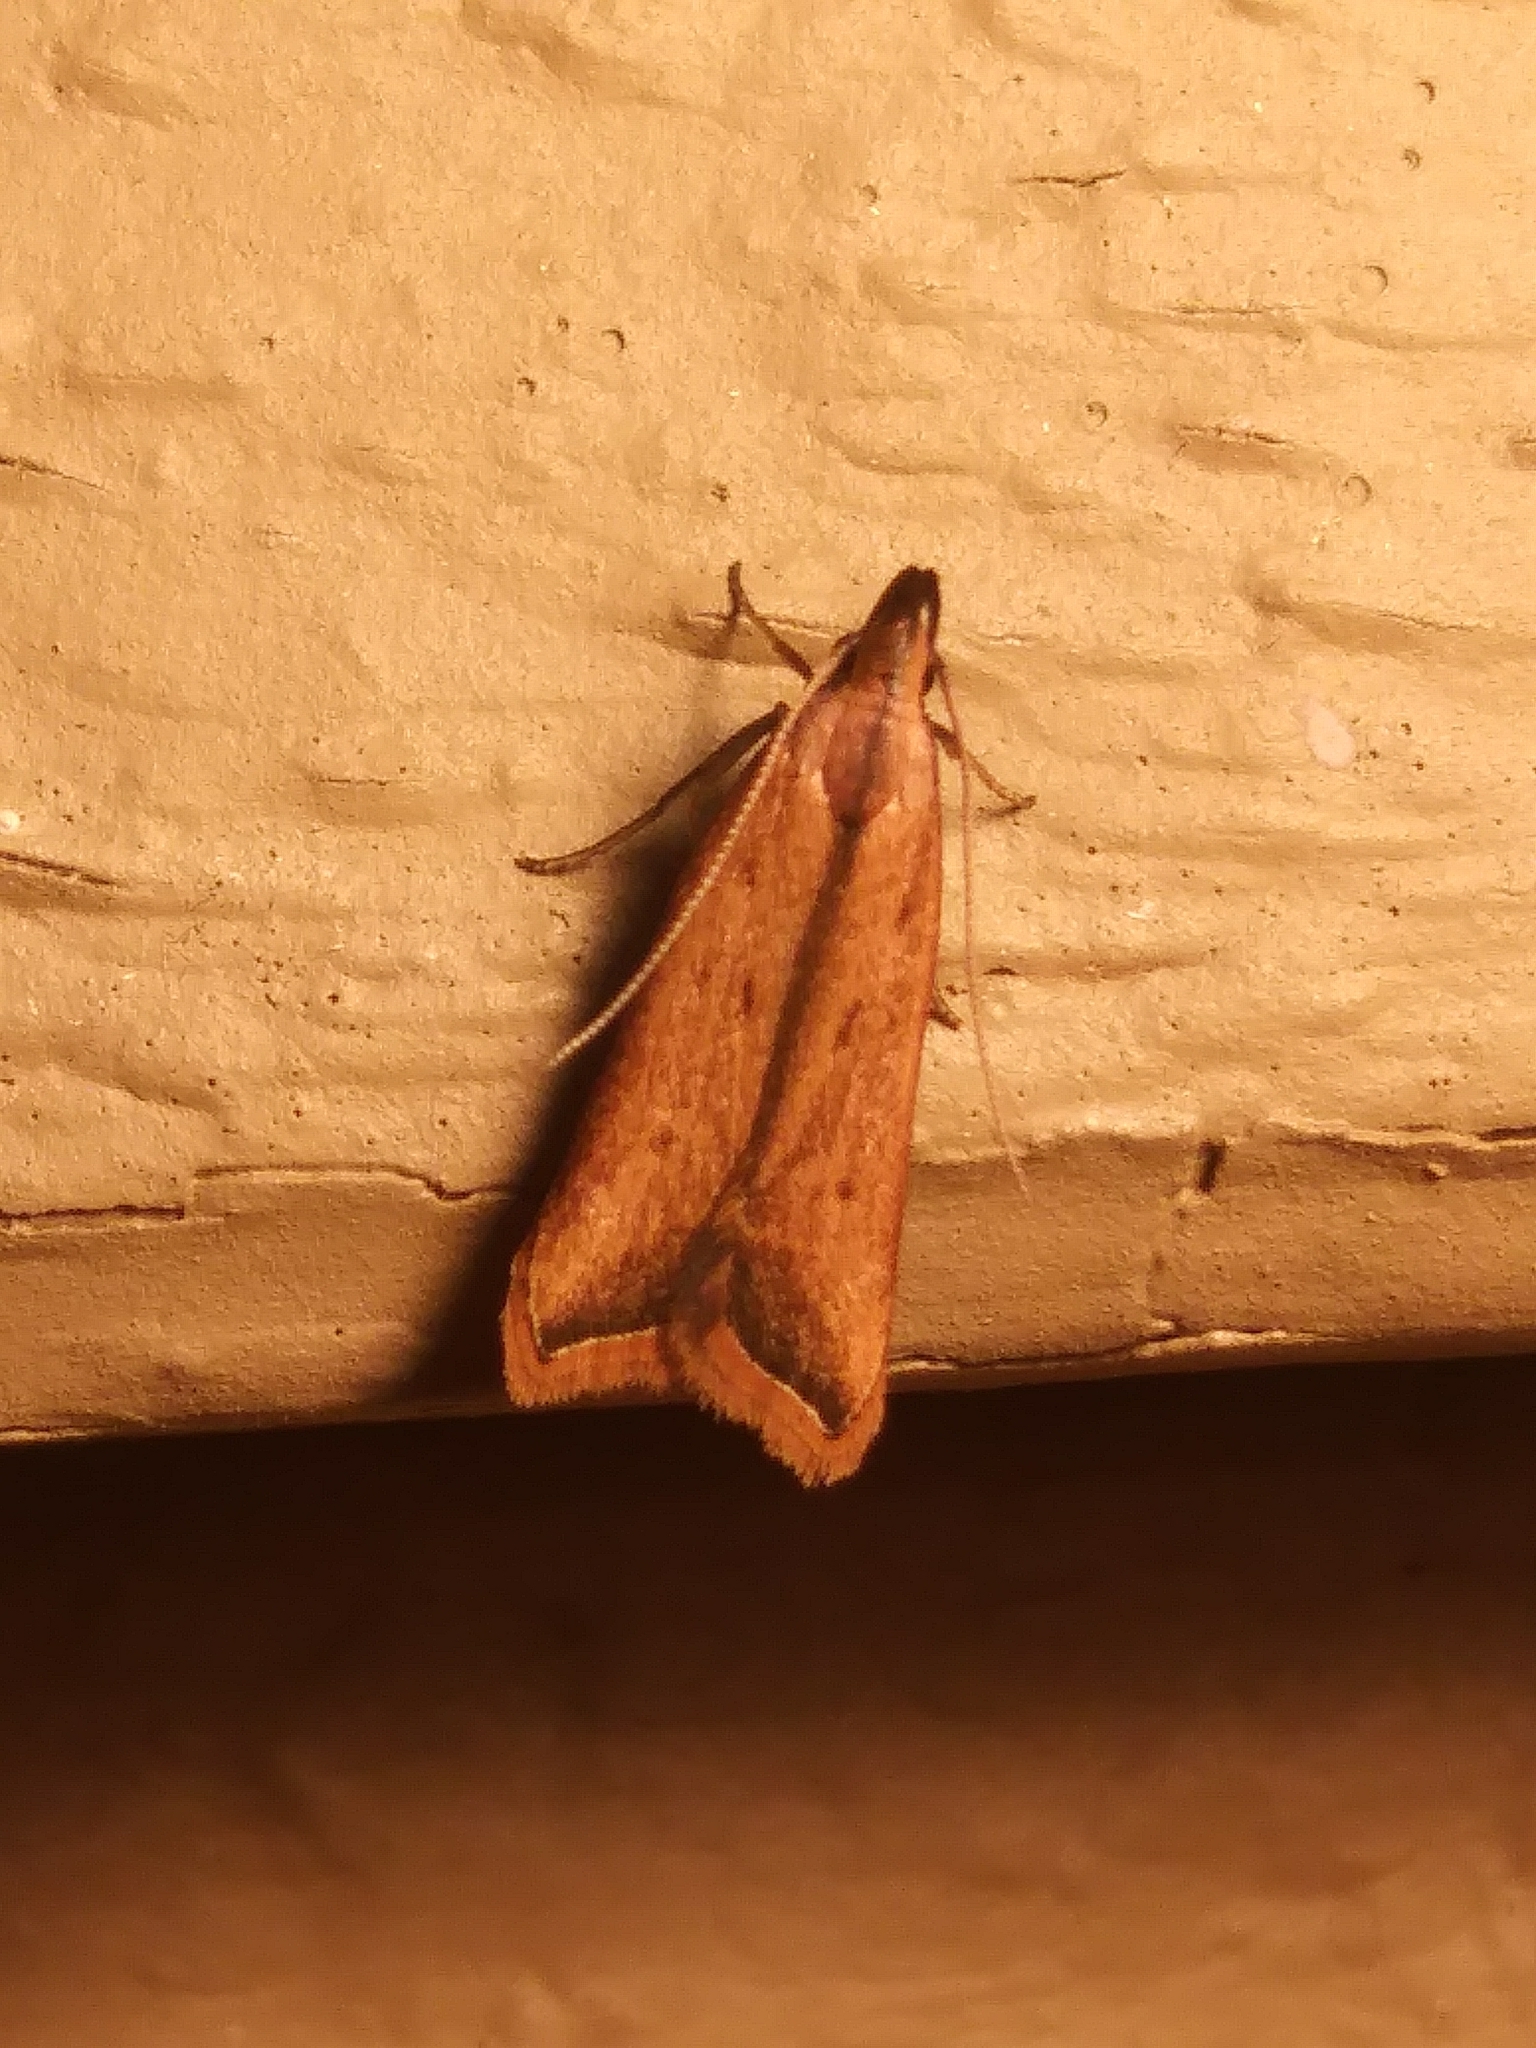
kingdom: Animalia
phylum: Arthropoda
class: Insecta
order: Lepidoptera
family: Gelechiidae
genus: Dichomeris
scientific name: Dichomeris heriguronis
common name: Black-edged dichomeris moth
